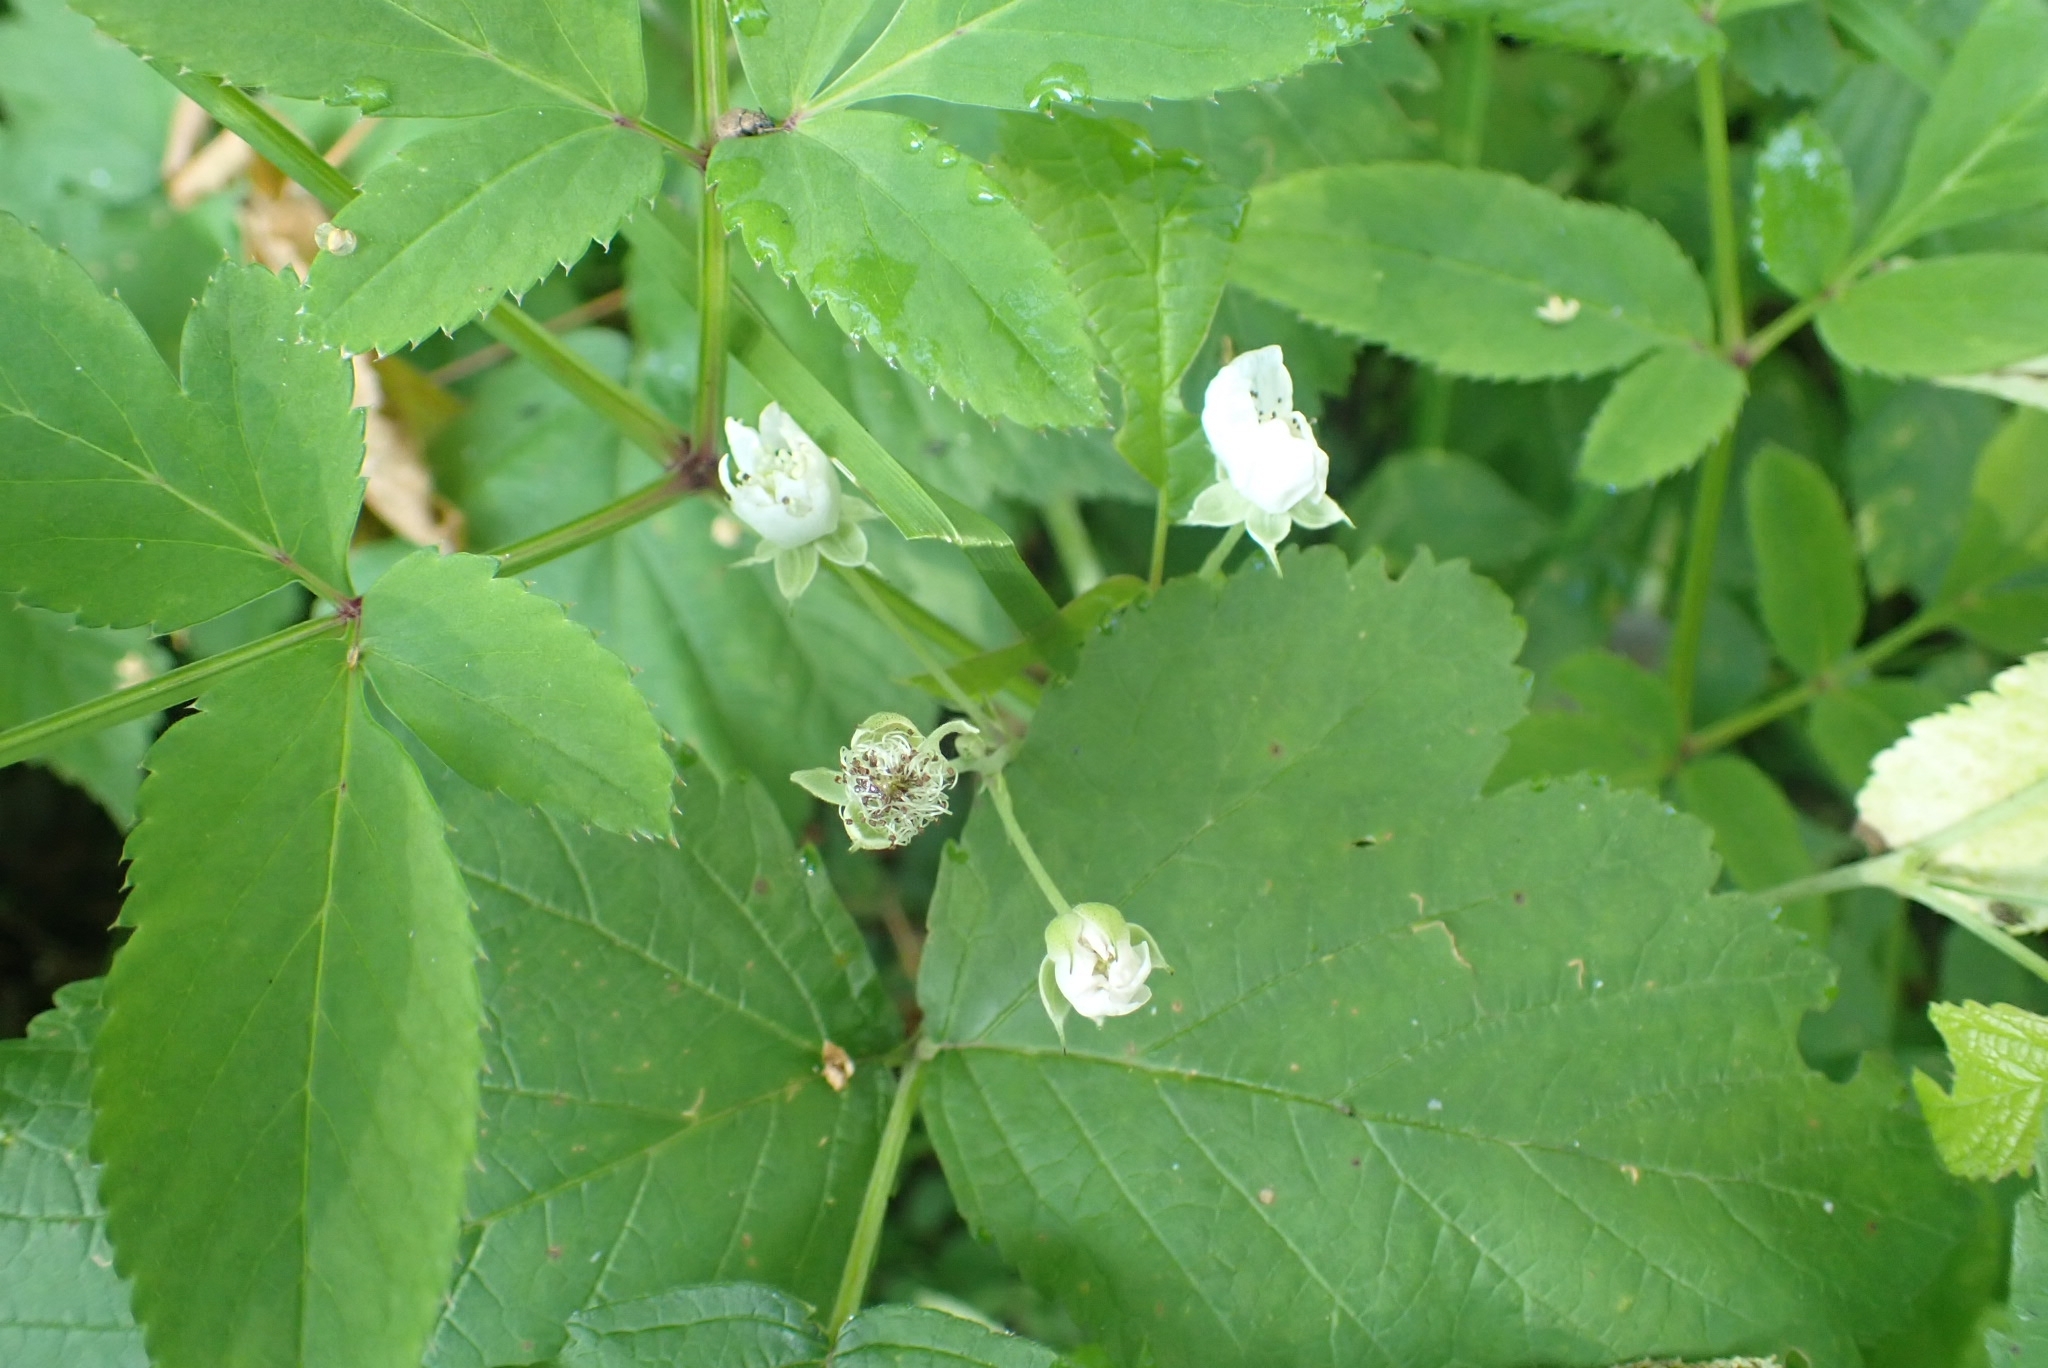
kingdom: Plantae
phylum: Tracheophyta
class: Magnoliopsida
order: Rosales
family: Rosaceae
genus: Rubus
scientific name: Rubus caesius
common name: Dewberry
